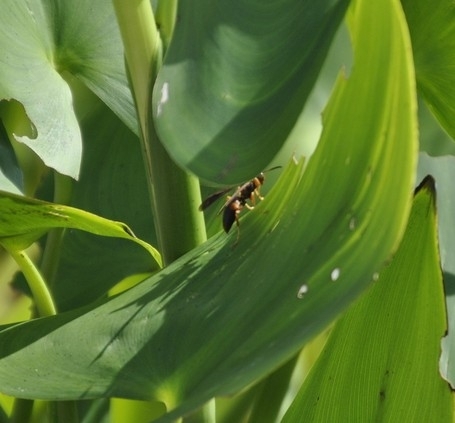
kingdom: Animalia
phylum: Arthropoda
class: Insecta
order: Hymenoptera
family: Eumenidae
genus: Polistes
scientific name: Polistes fuscatus
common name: Dark paper wasp
